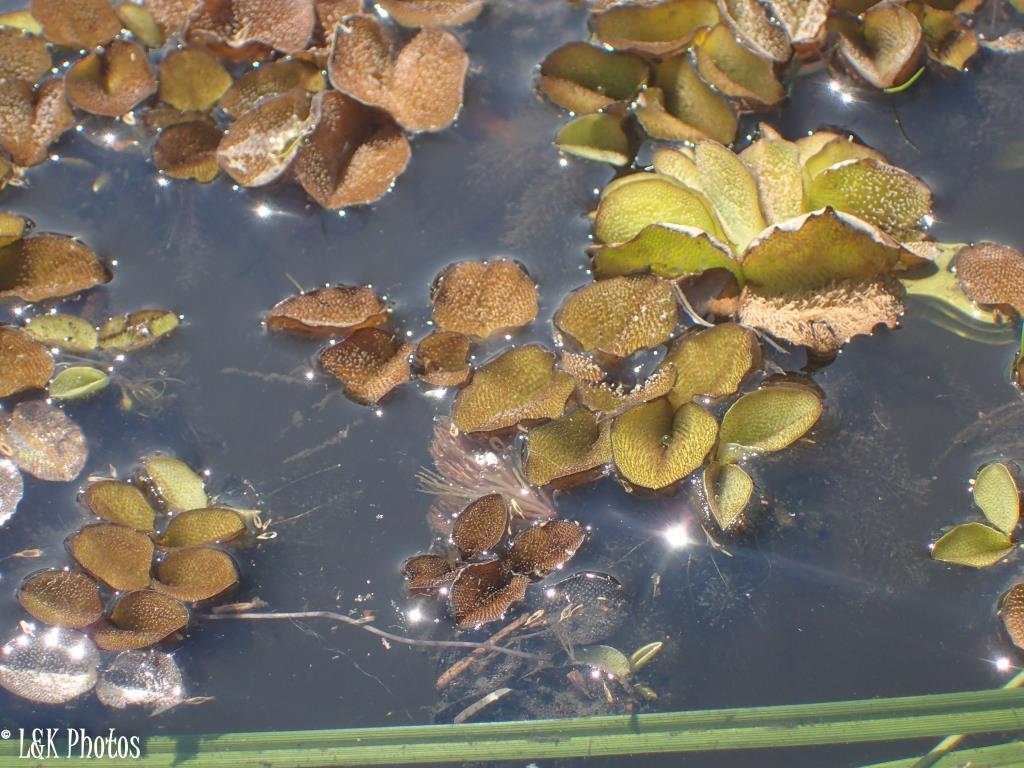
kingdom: Plantae
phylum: Tracheophyta
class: Polypodiopsida
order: Salviniales
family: Salviniaceae
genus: Salvinia
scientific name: Salvinia molesta
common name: Kariba weed
